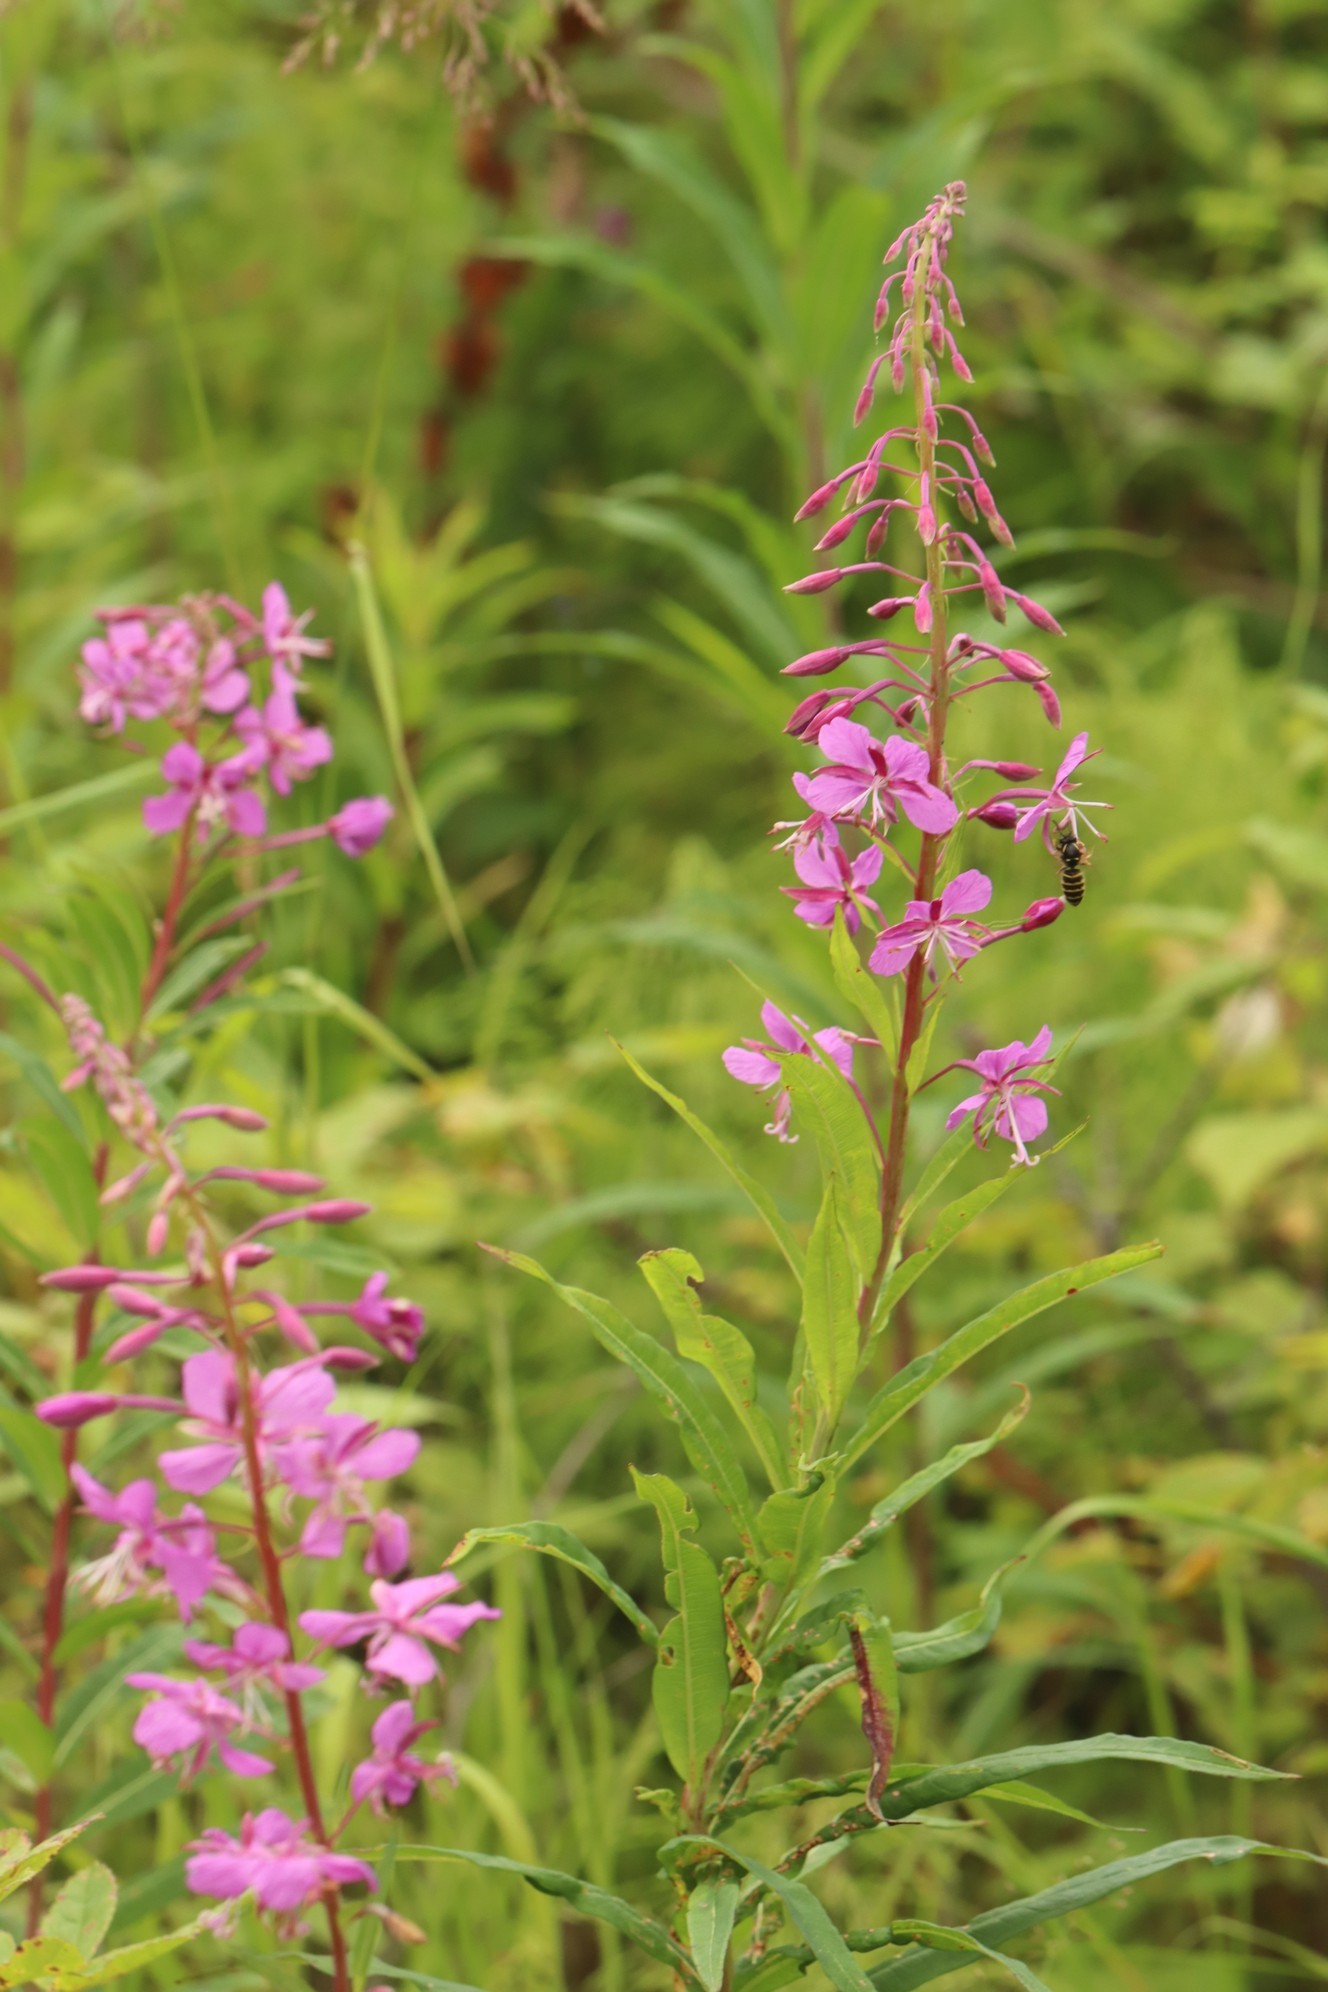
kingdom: Plantae
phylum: Tracheophyta
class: Magnoliopsida
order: Myrtales
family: Onagraceae
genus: Chamaenerion
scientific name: Chamaenerion angustifolium
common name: Fireweed
